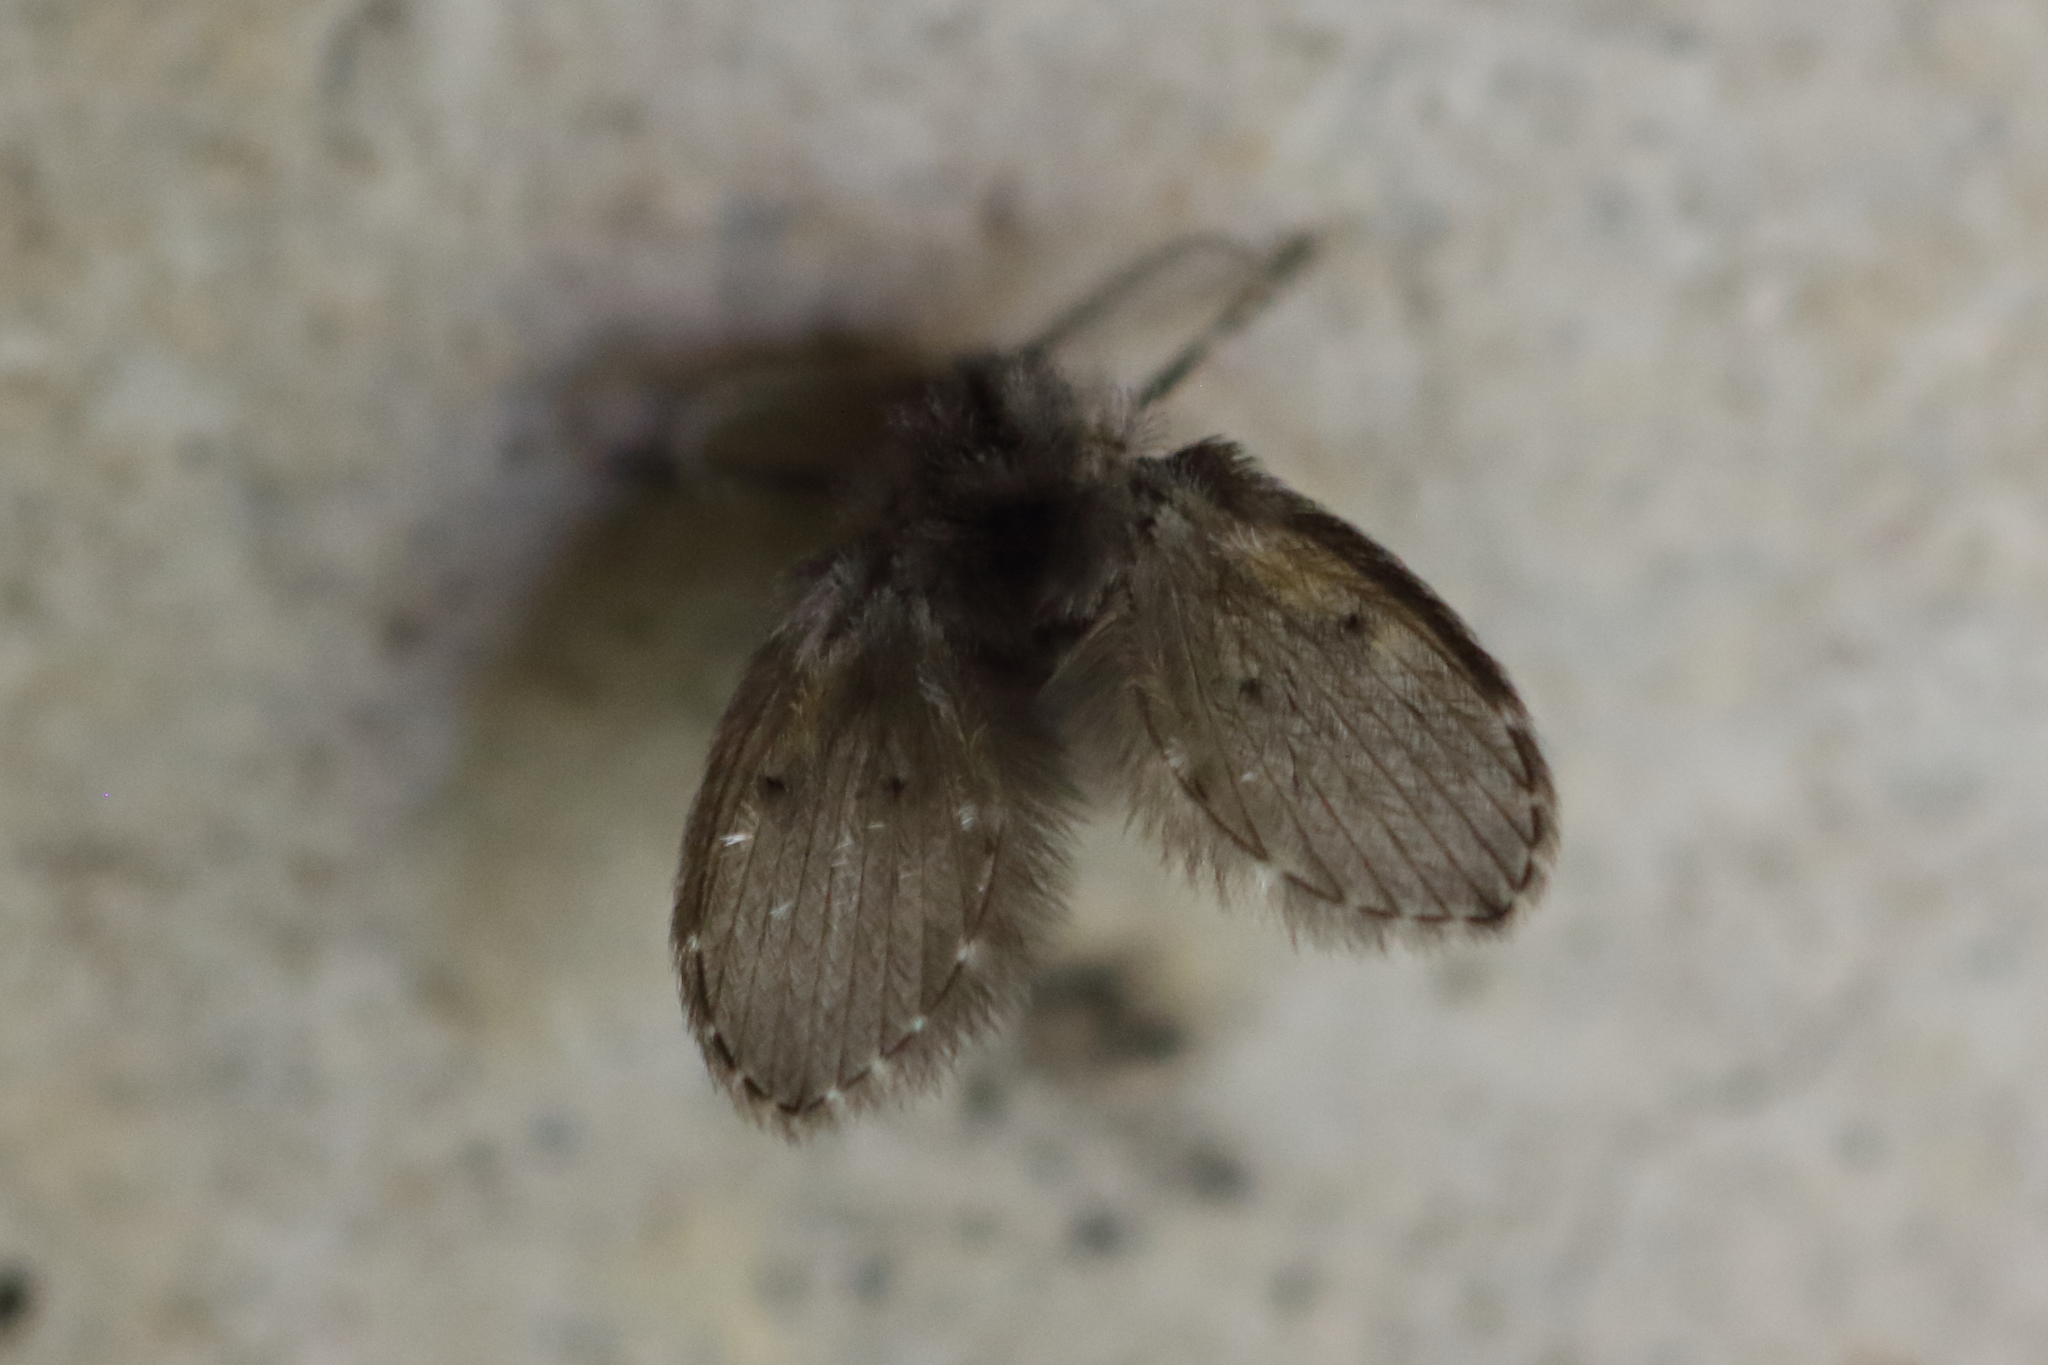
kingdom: Animalia
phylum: Arthropoda
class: Insecta
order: Diptera
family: Psychodidae
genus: Clogmia
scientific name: Clogmia albipunctatus
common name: White-spotted moth fly
